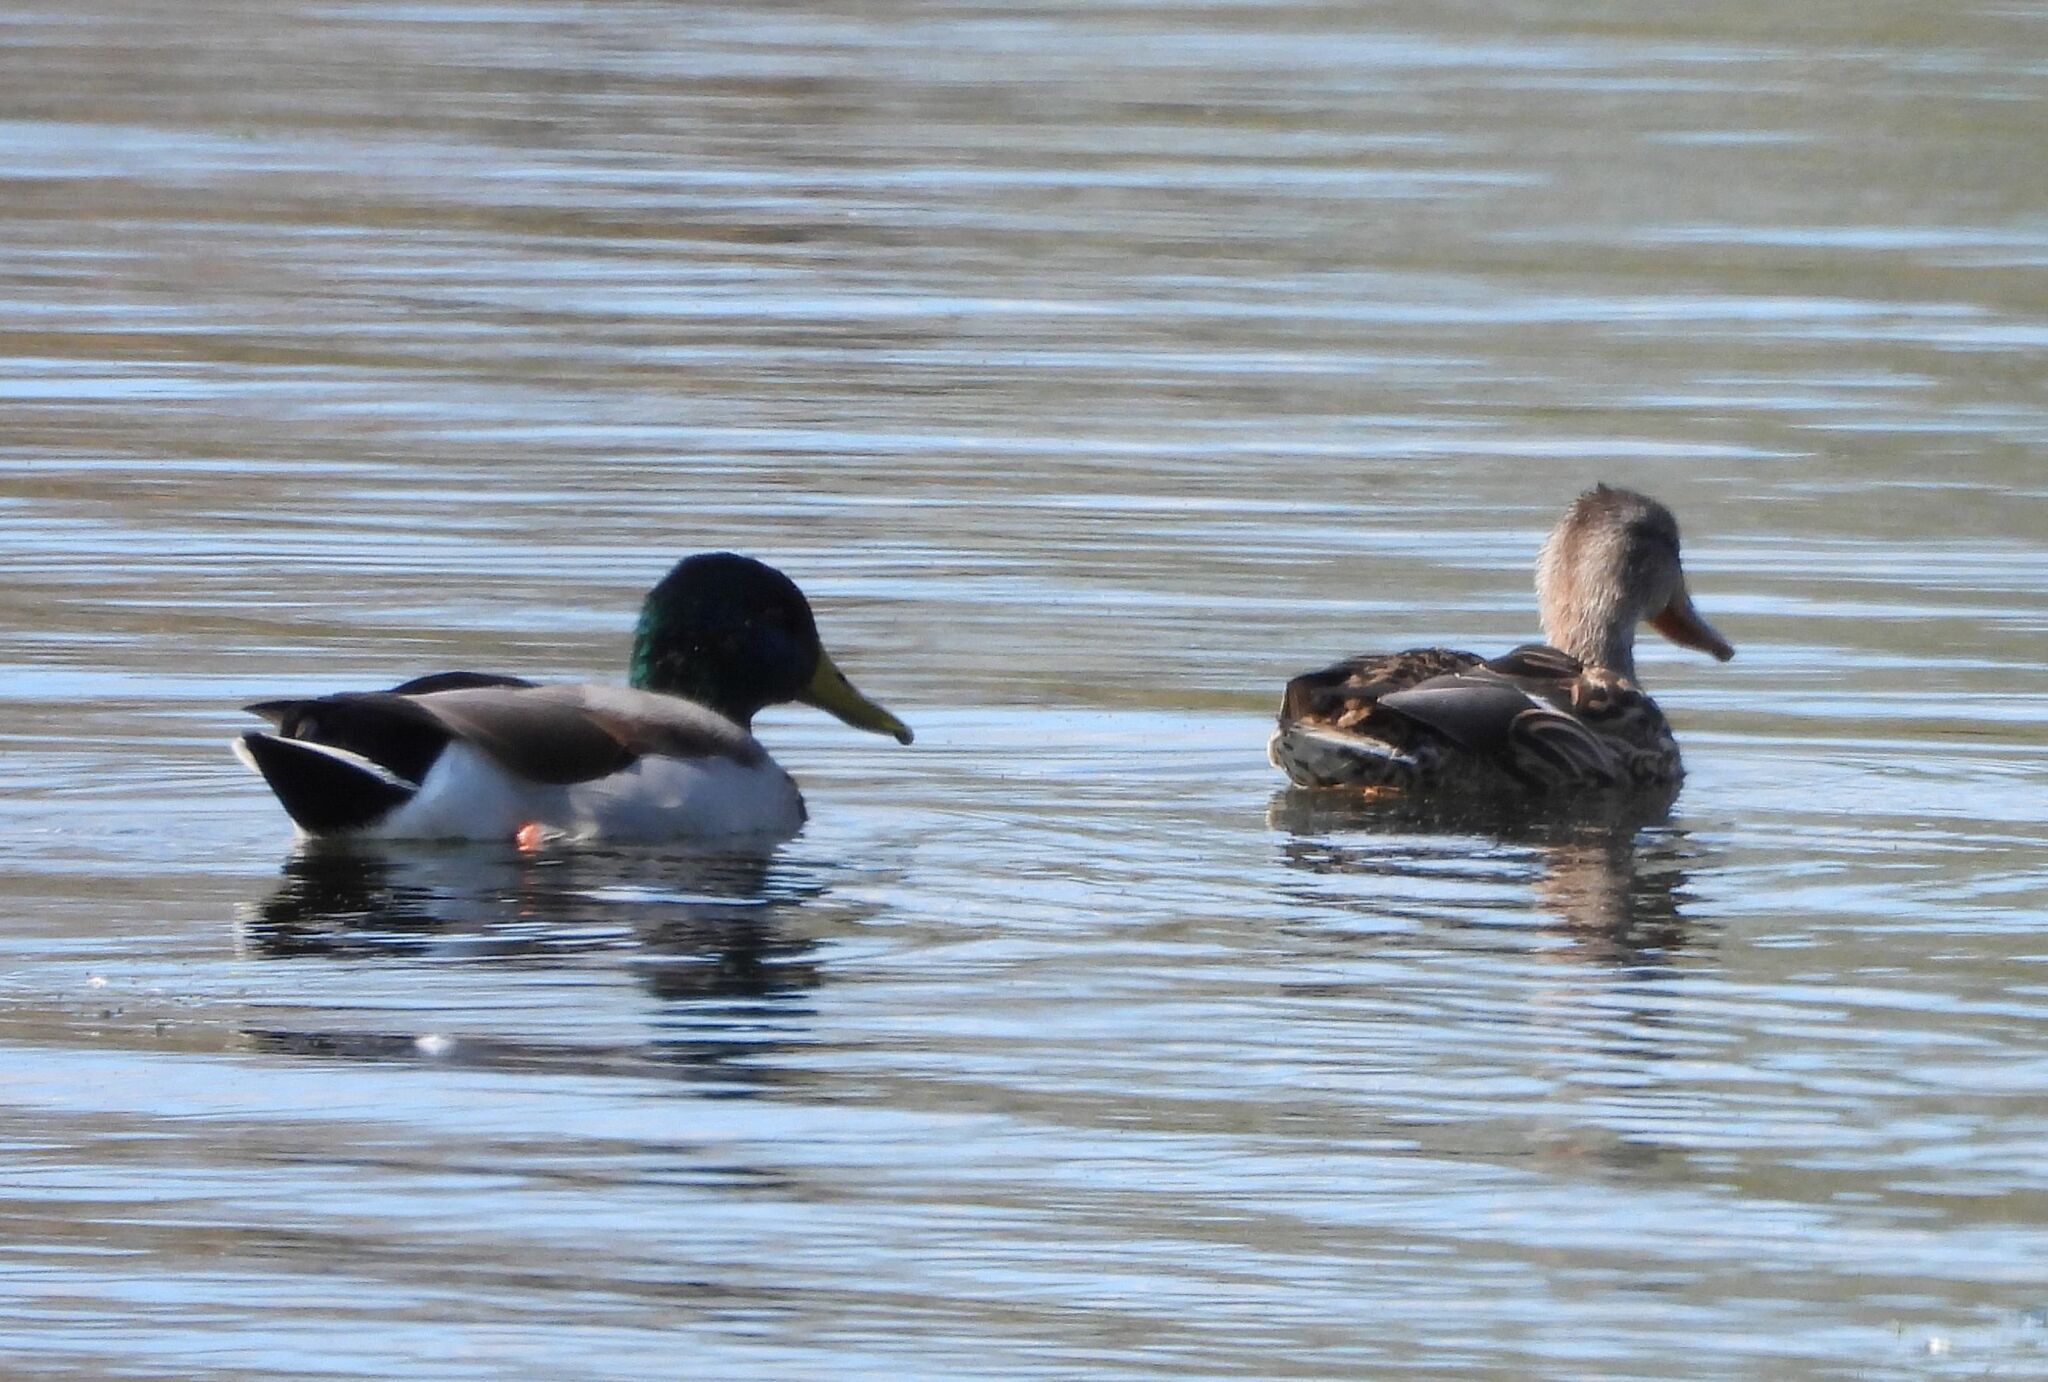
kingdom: Animalia
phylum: Chordata
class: Aves
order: Anseriformes
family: Anatidae
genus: Anas
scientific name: Anas platyrhynchos
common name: Mallard
